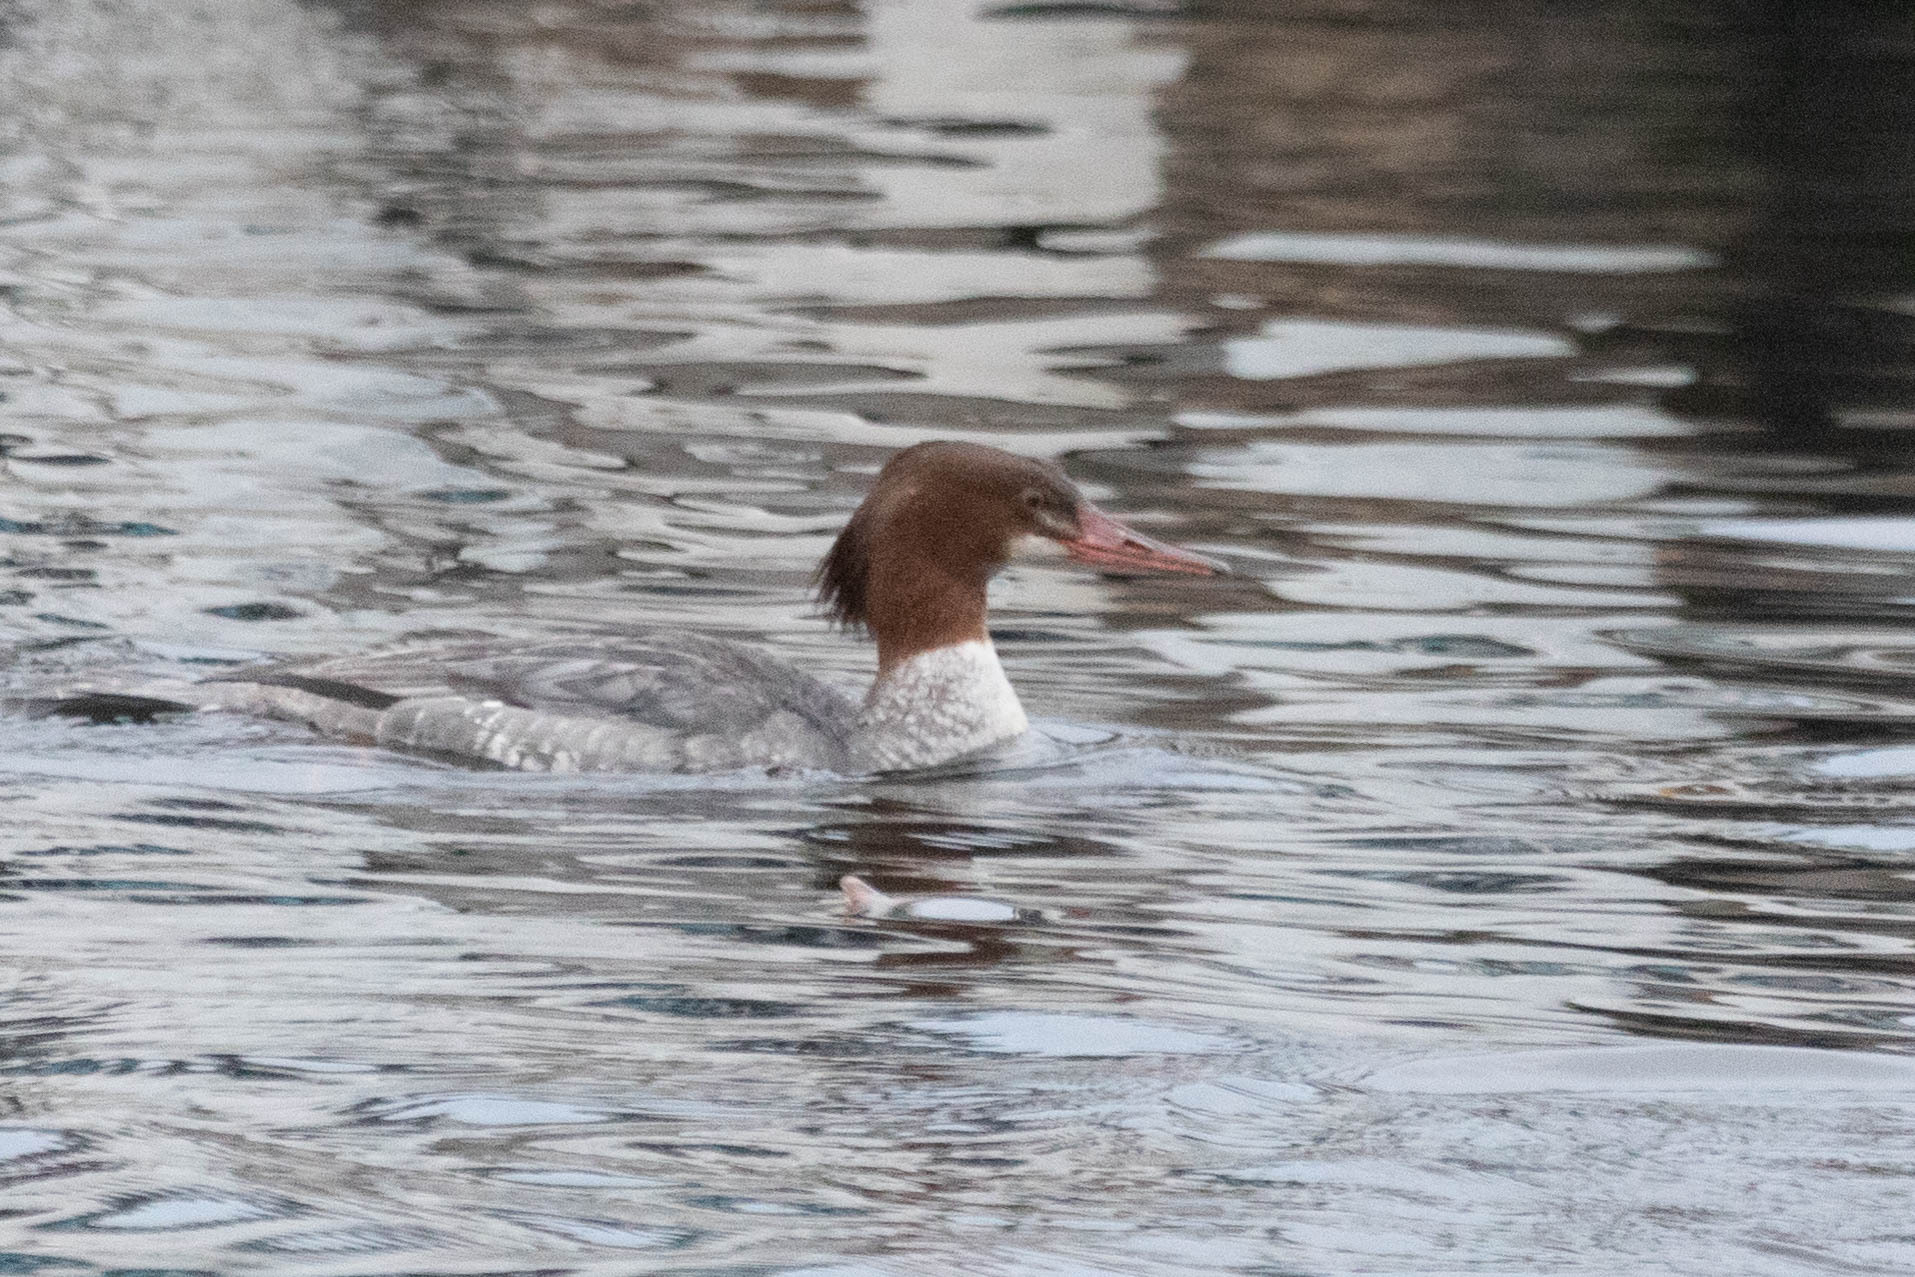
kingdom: Animalia
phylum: Chordata
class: Aves
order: Anseriformes
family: Anatidae
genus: Mergus
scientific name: Mergus merganser
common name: Common merganser
